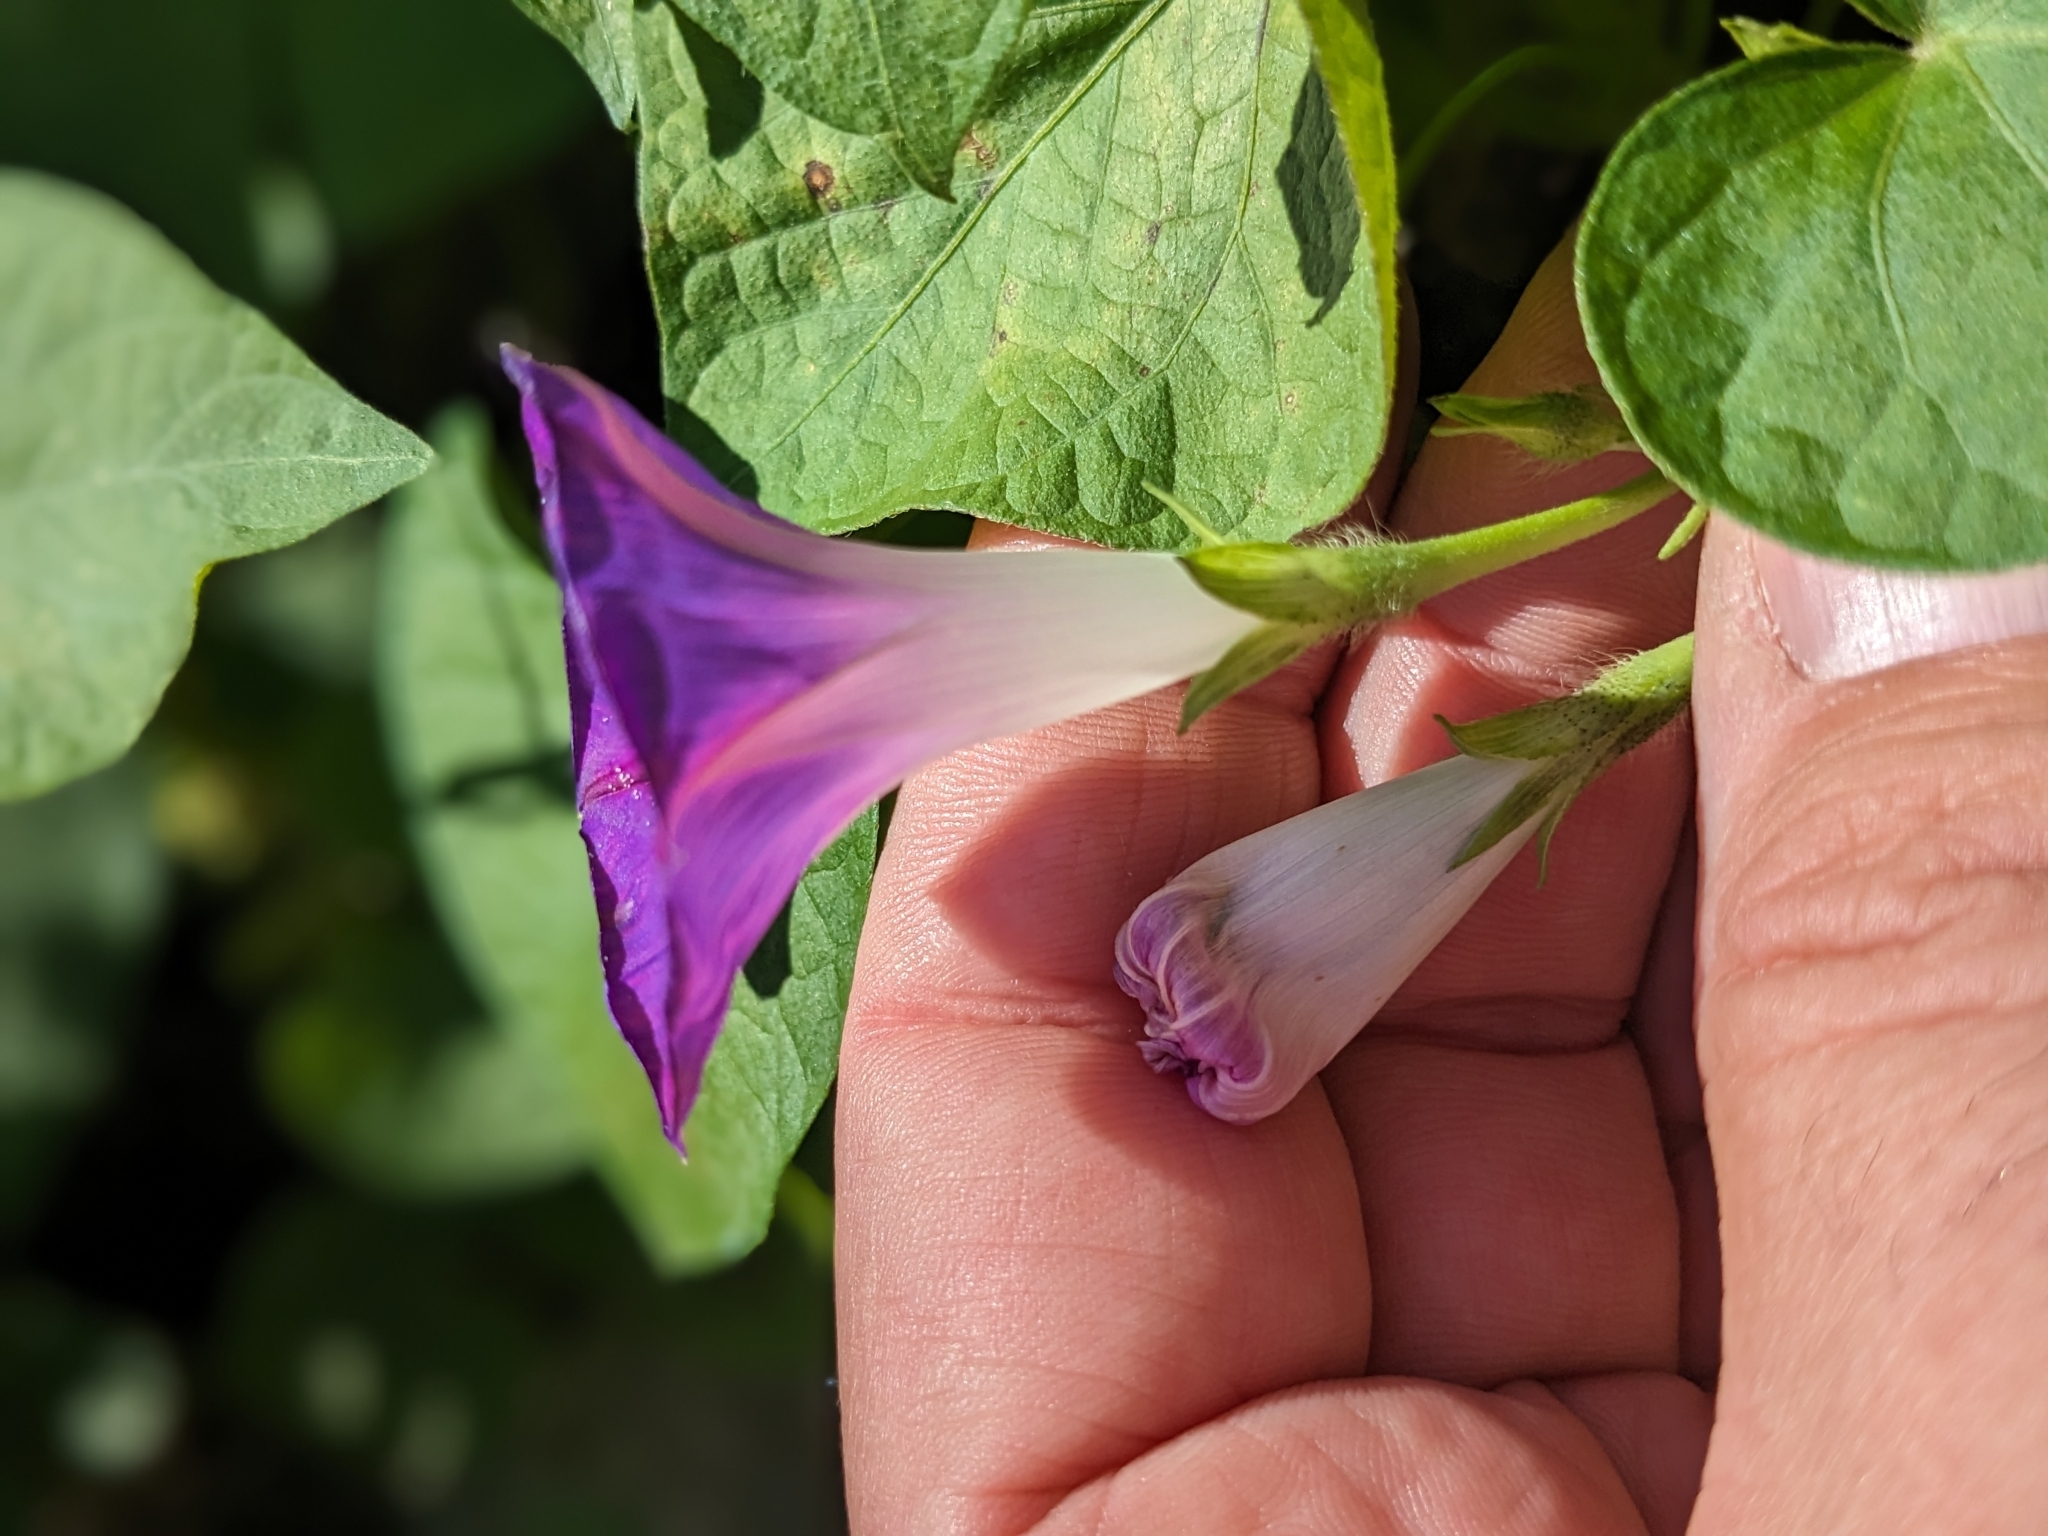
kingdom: Plantae
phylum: Tracheophyta
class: Magnoliopsida
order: Solanales
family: Convolvulaceae
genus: Ipomoea
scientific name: Ipomoea purpurea
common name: Common morning-glory
